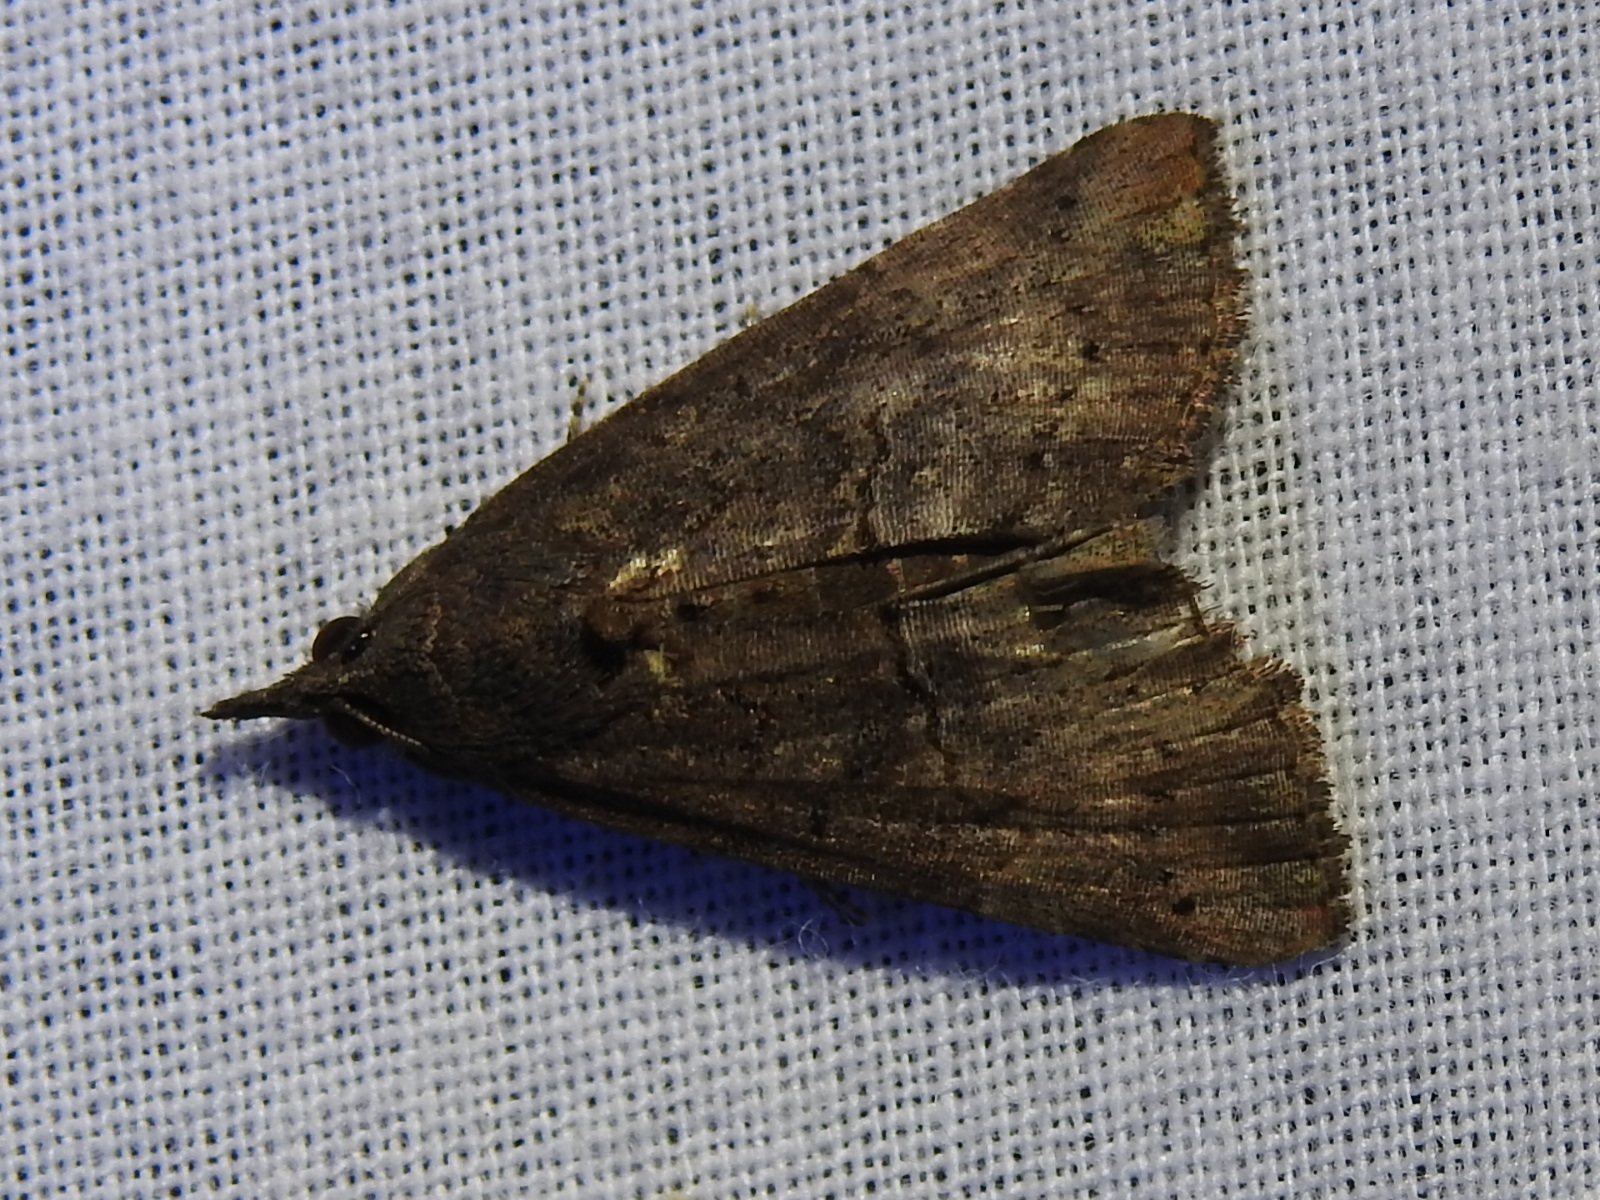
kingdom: Animalia
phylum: Arthropoda
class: Insecta
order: Lepidoptera
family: Erebidae
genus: Hypena
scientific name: Hypena scabra
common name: Green cloverworm
